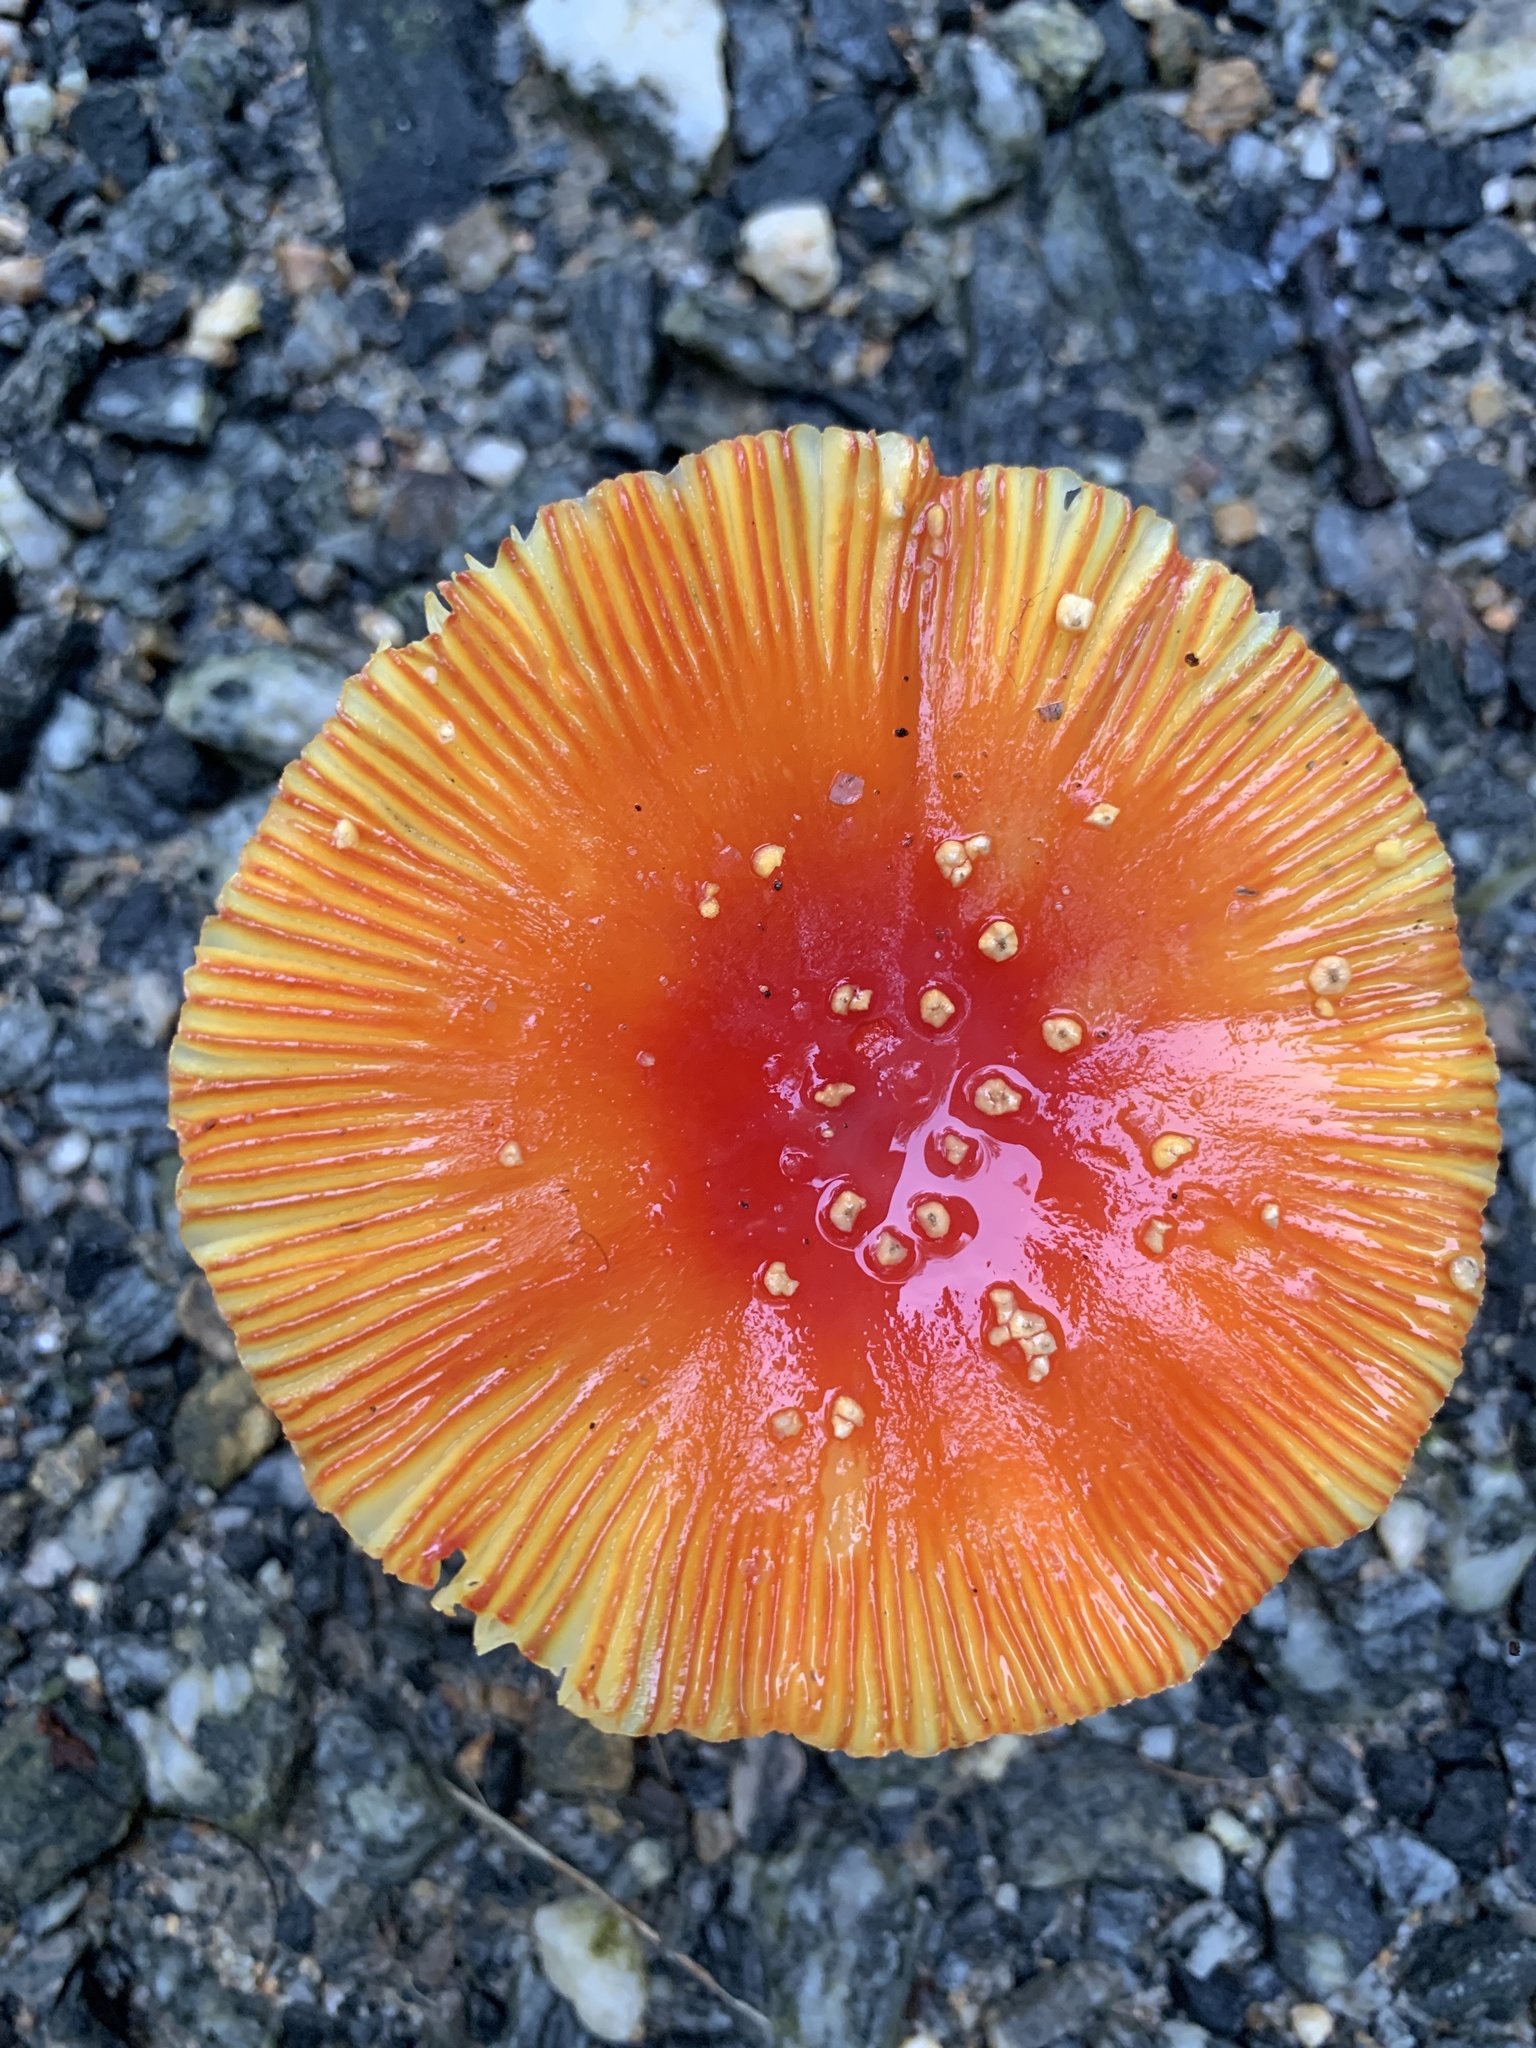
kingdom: Fungi
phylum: Basidiomycota
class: Agaricomycetes
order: Agaricales
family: Amanitaceae
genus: Amanita
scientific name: Amanita parcivolvata
